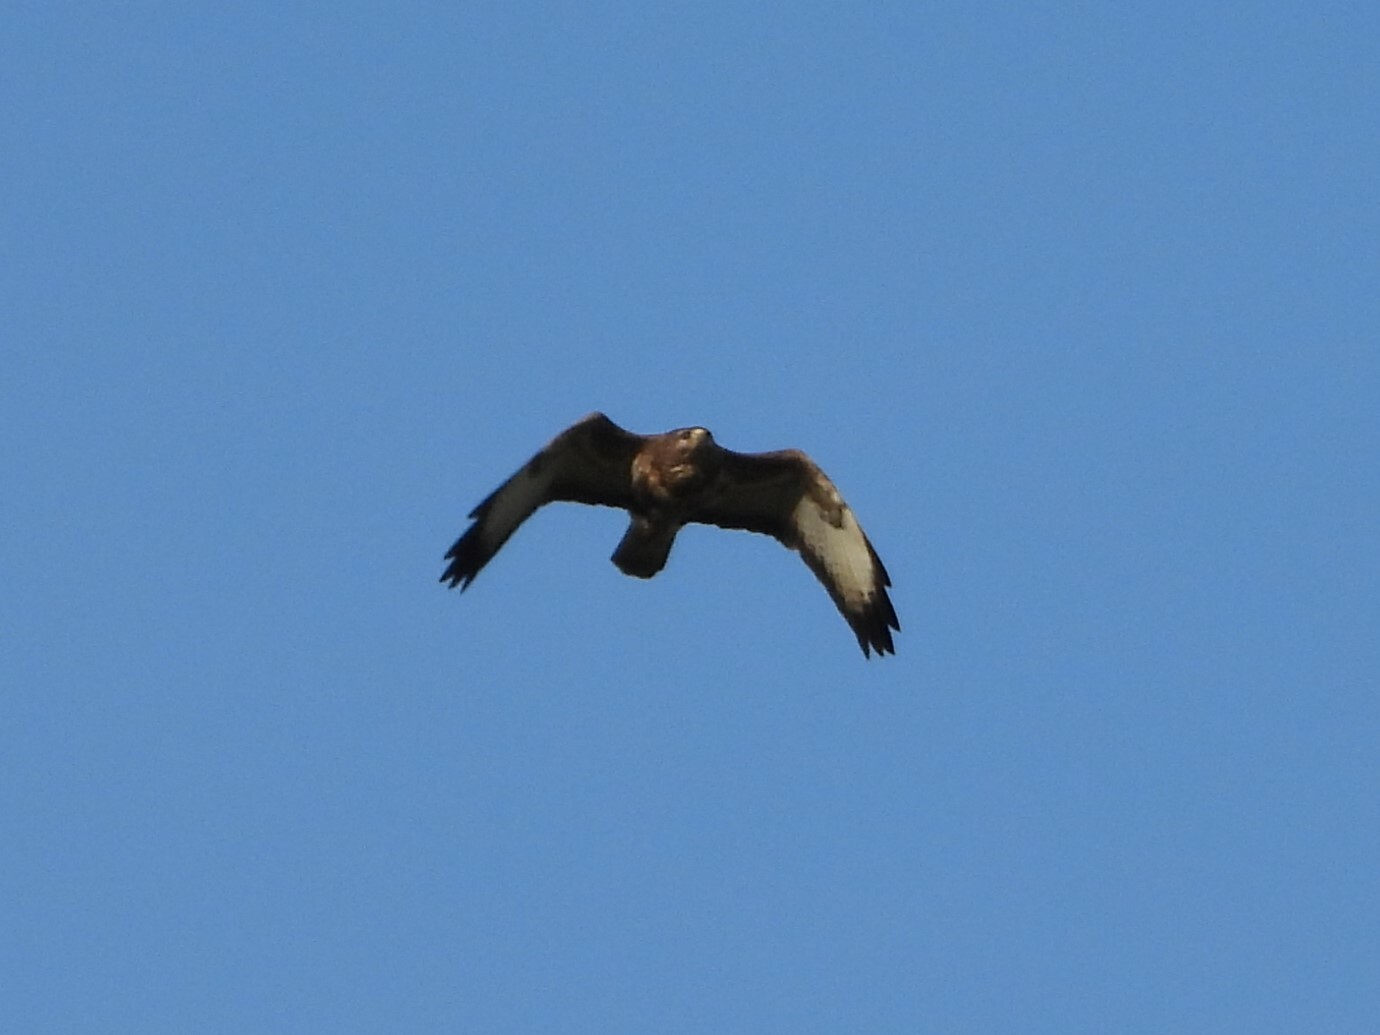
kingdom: Animalia
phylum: Chordata
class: Aves
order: Accipitriformes
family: Accipitridae
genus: Buteo
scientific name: Buteo buteo
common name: Common buzzard
